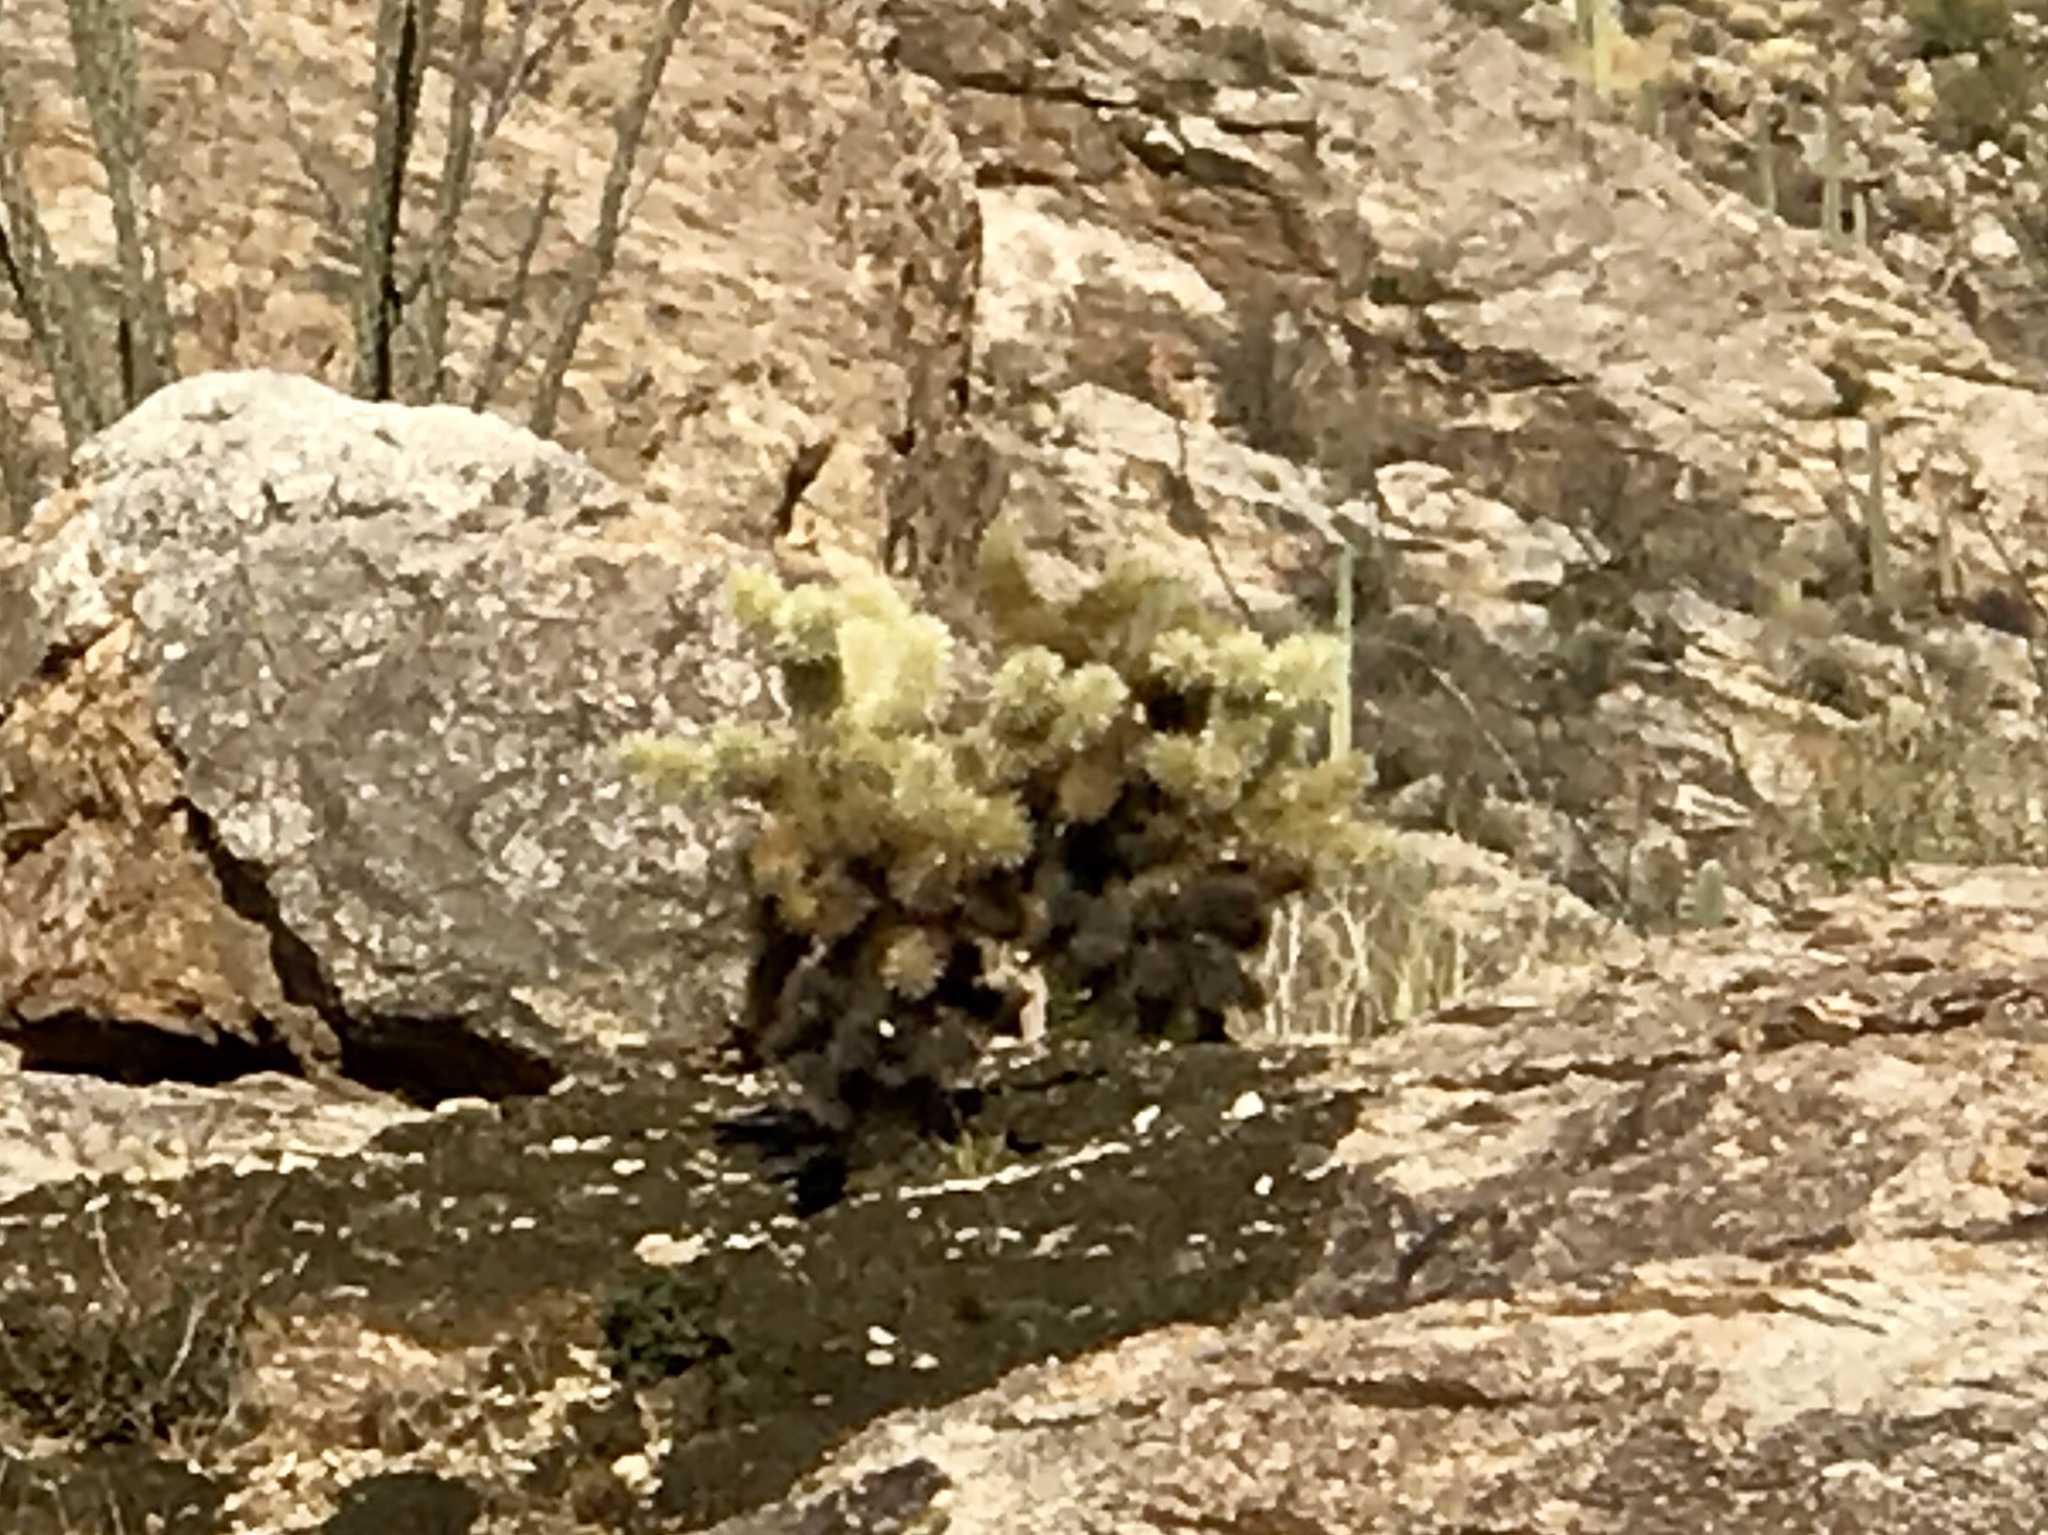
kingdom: Plantae
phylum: Tracheophyta
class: Magnoliopsida
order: Caryophyllales
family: Cactaceae
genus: Cylindropuntia
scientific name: Cylindropuntia fosbergii
